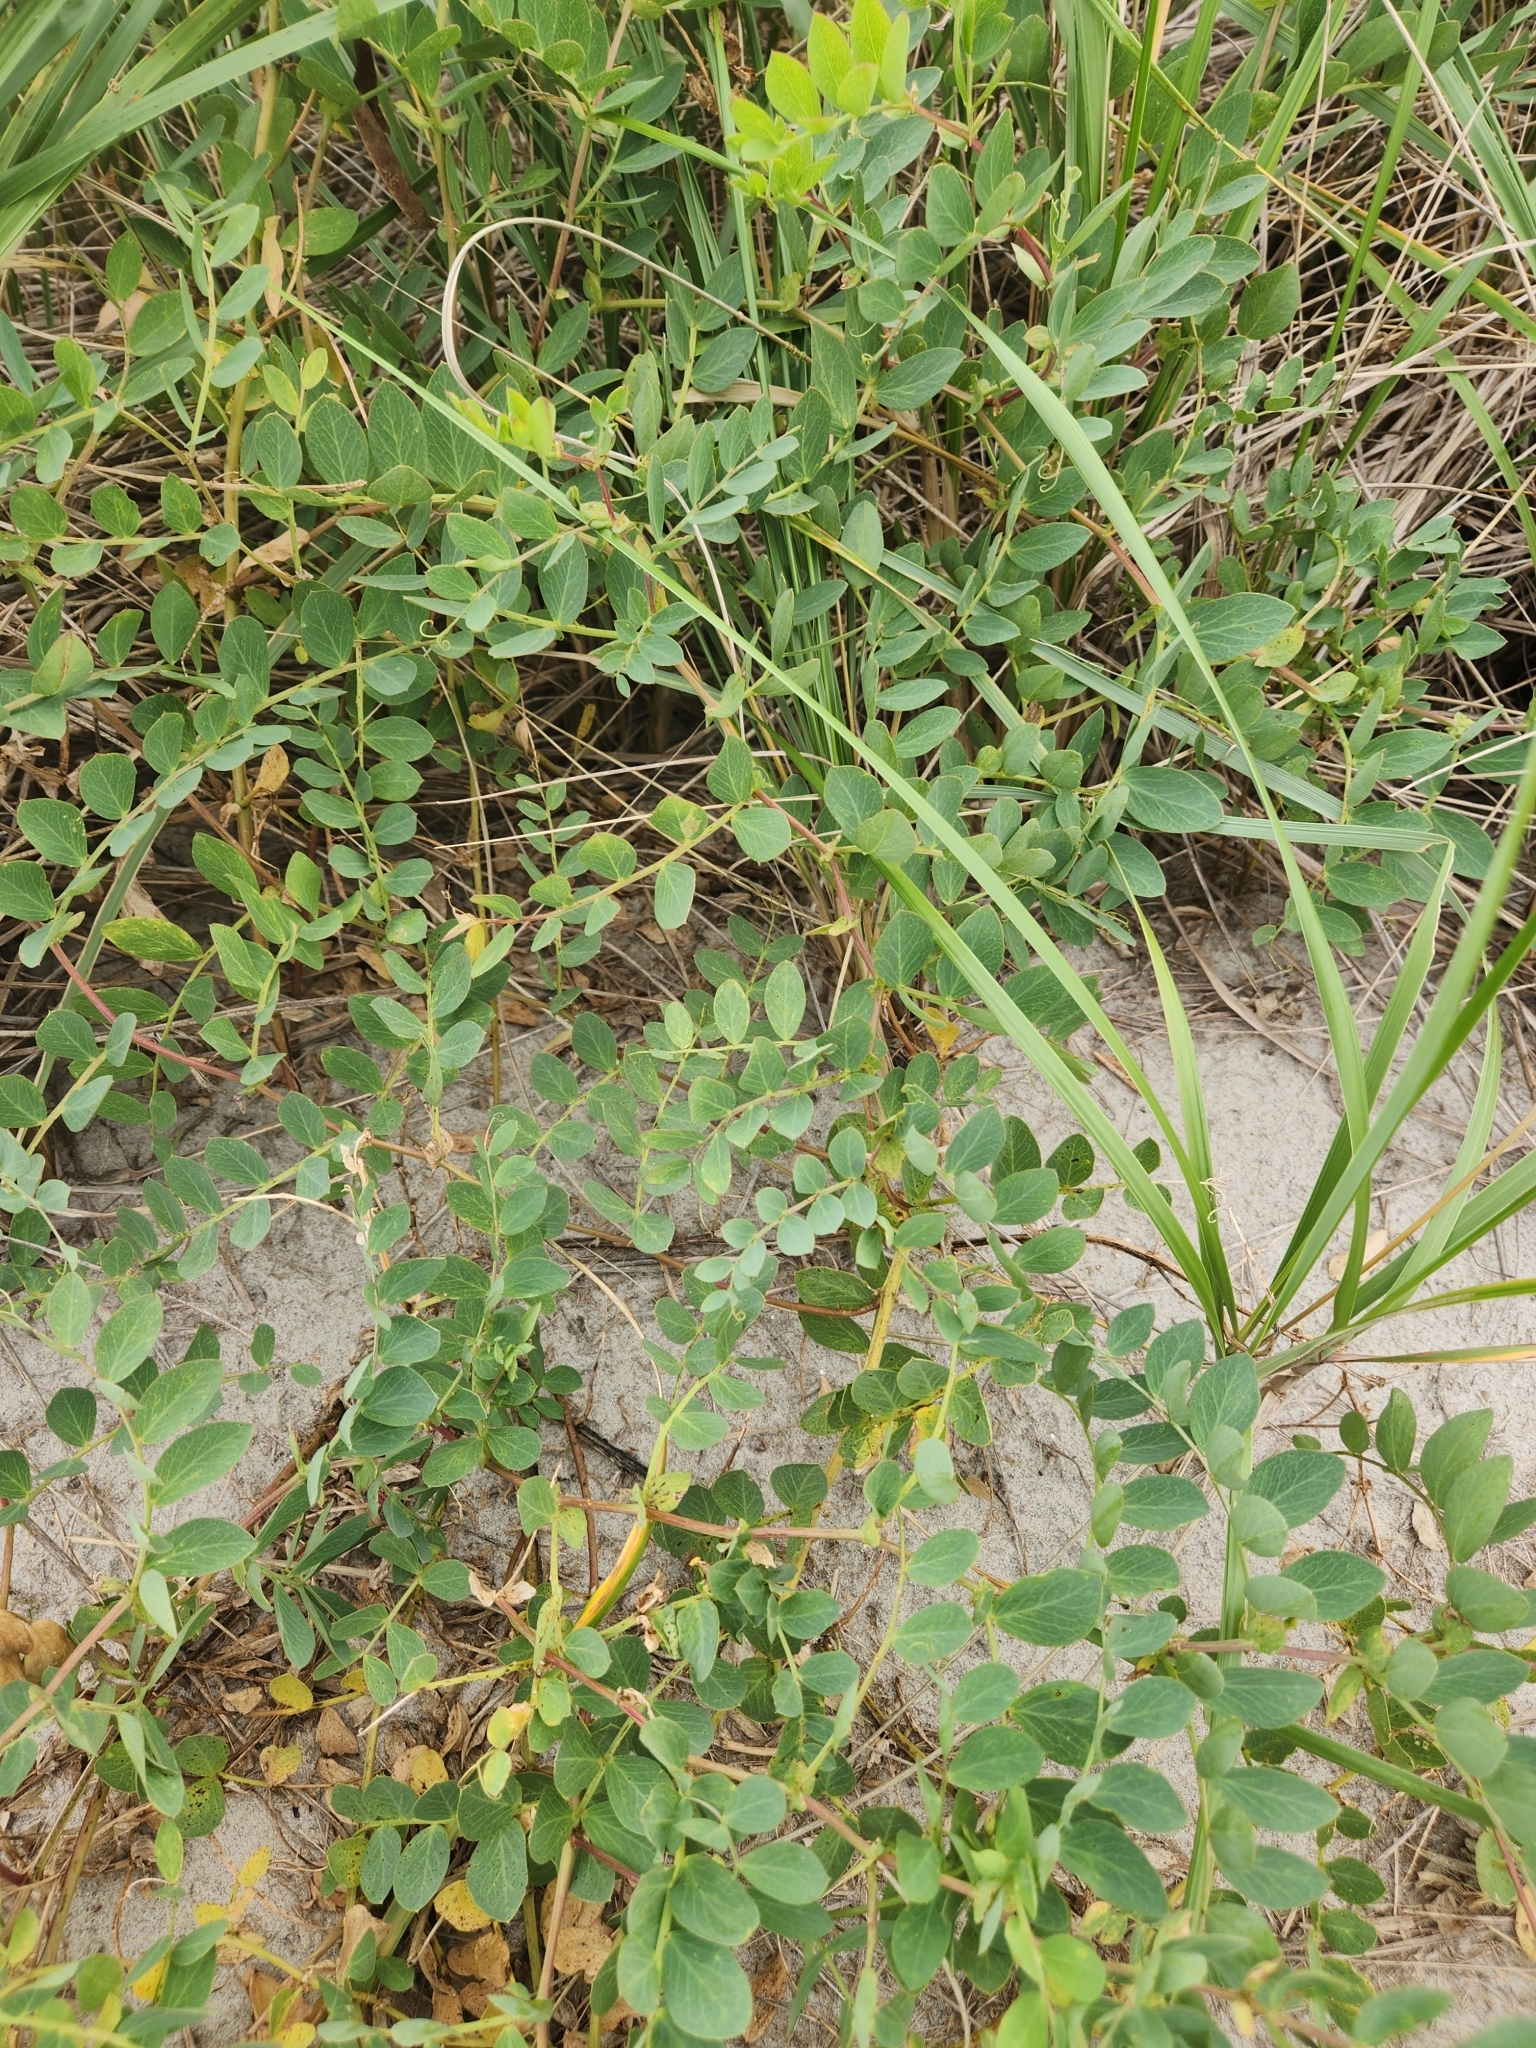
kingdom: Plantae
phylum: Tracheophyta
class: Magnoliopsida
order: Fabales
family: Fabaceae
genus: Lathyrus
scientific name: Lathyrus japonicus
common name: Sea pea
